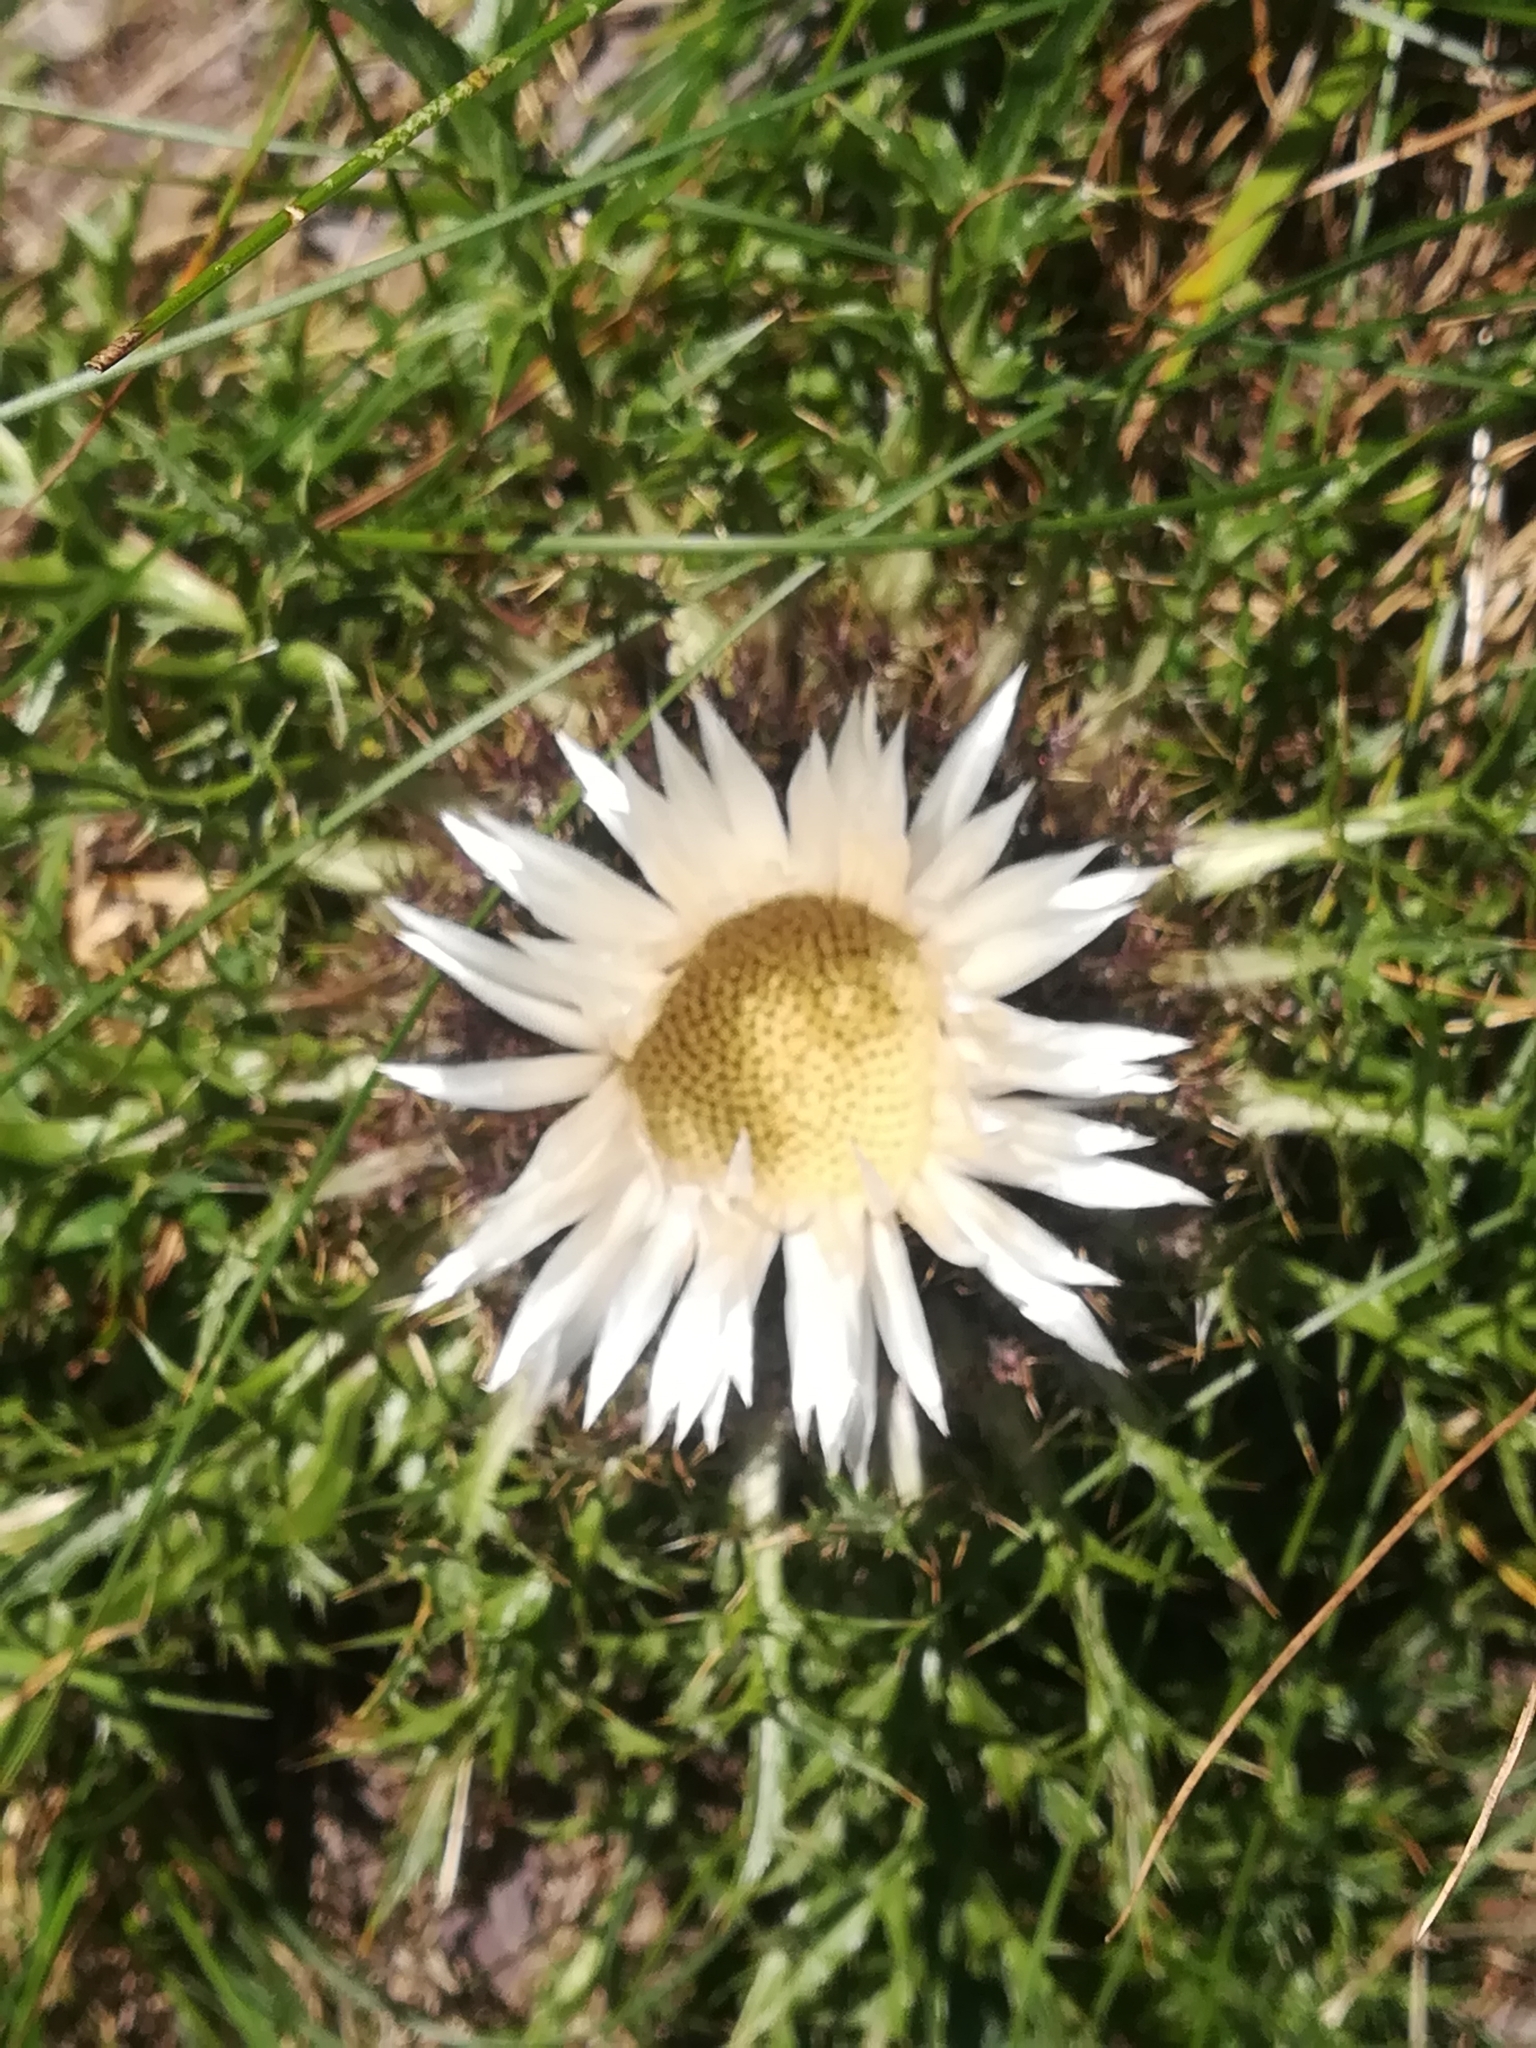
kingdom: Plantae
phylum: Tracheophyta
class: Magnoliopsida
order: Asterales
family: Asteraceae
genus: Carlina
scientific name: Carlina acaulis
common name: Stemless carline thistle
